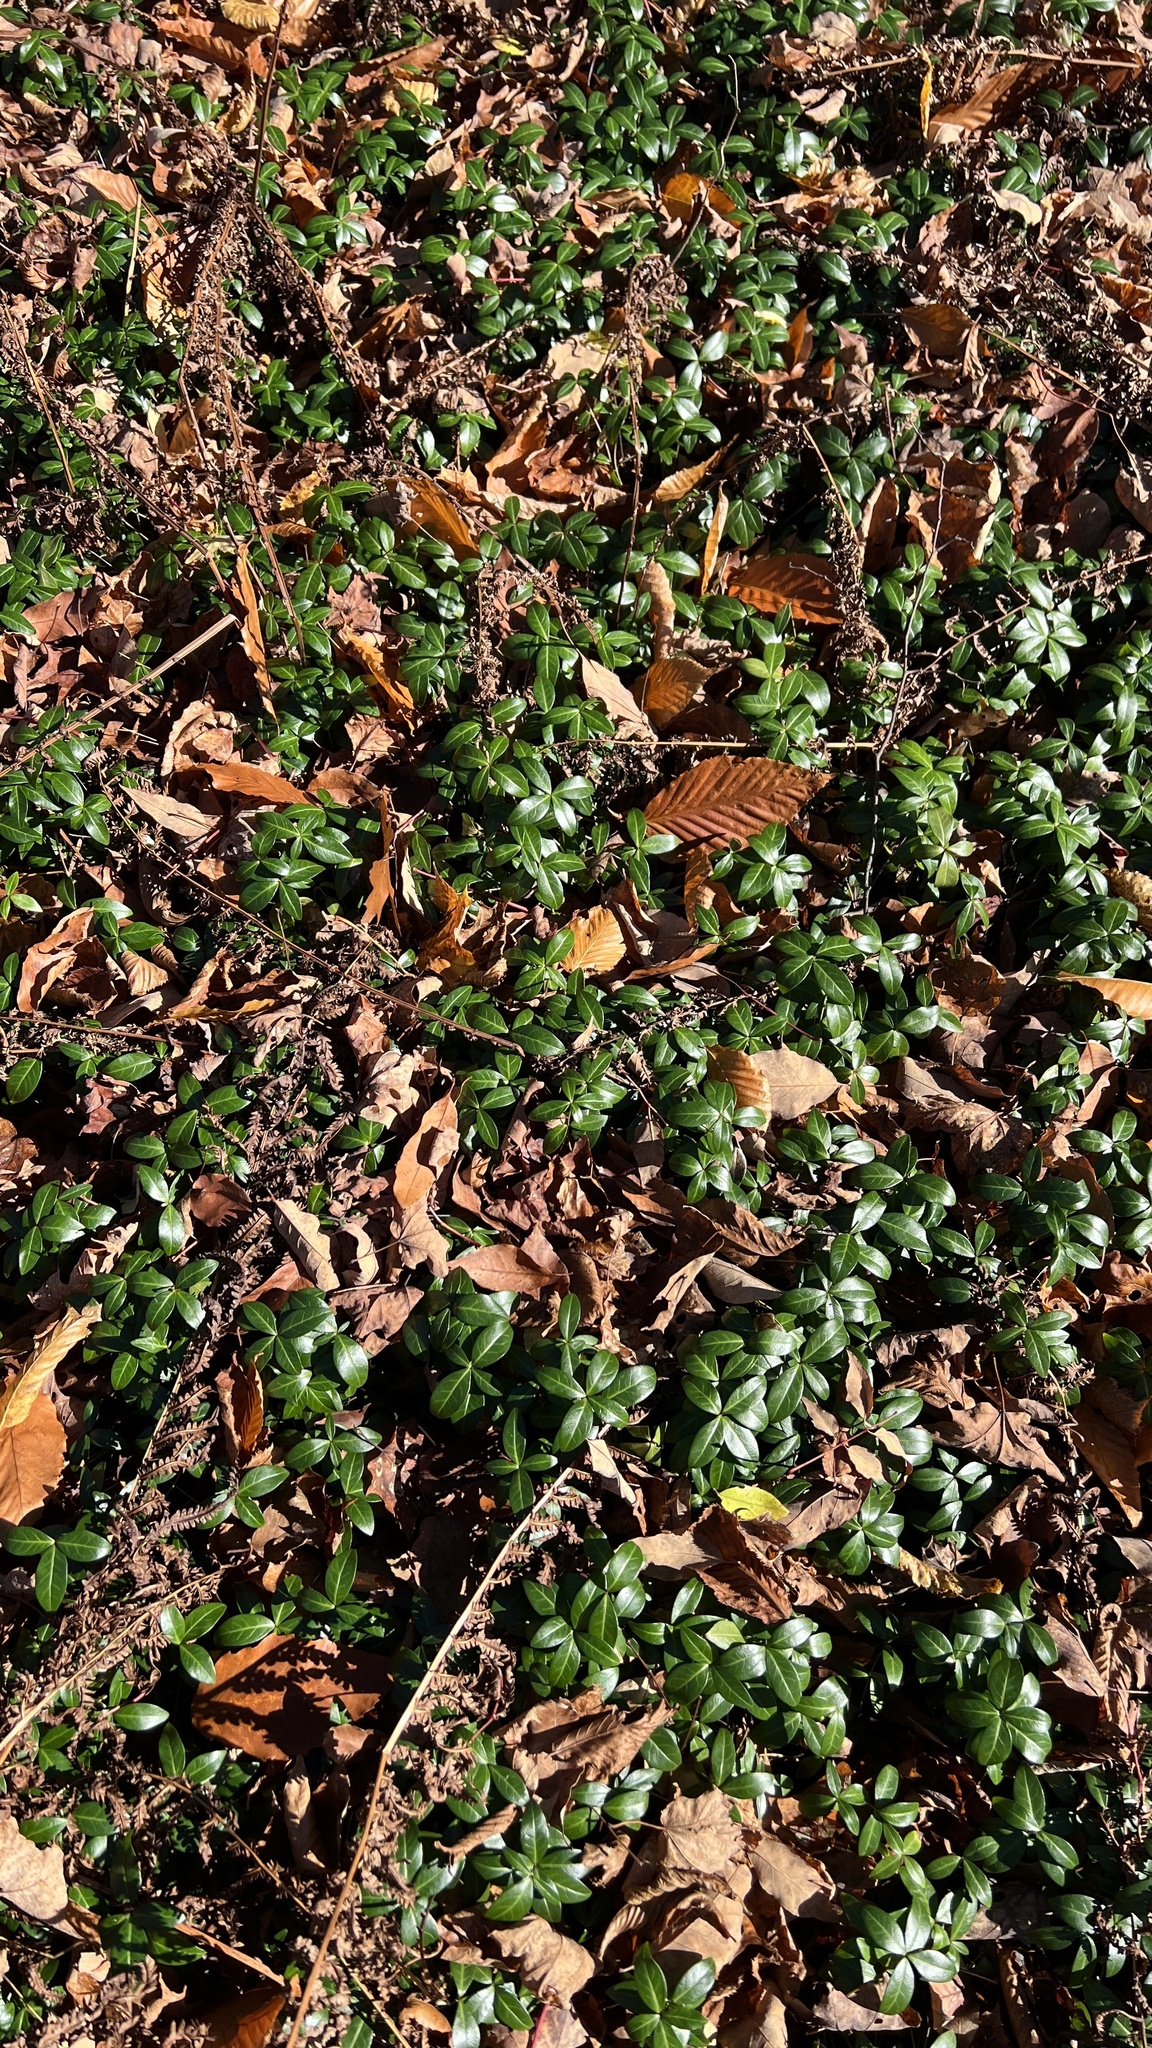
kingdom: Plantae
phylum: Tracheophyta
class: Magnoliopsida
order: Gentianales
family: Apocynaceae
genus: Vinca
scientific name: Vinca minor
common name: Lesser periwinkle
